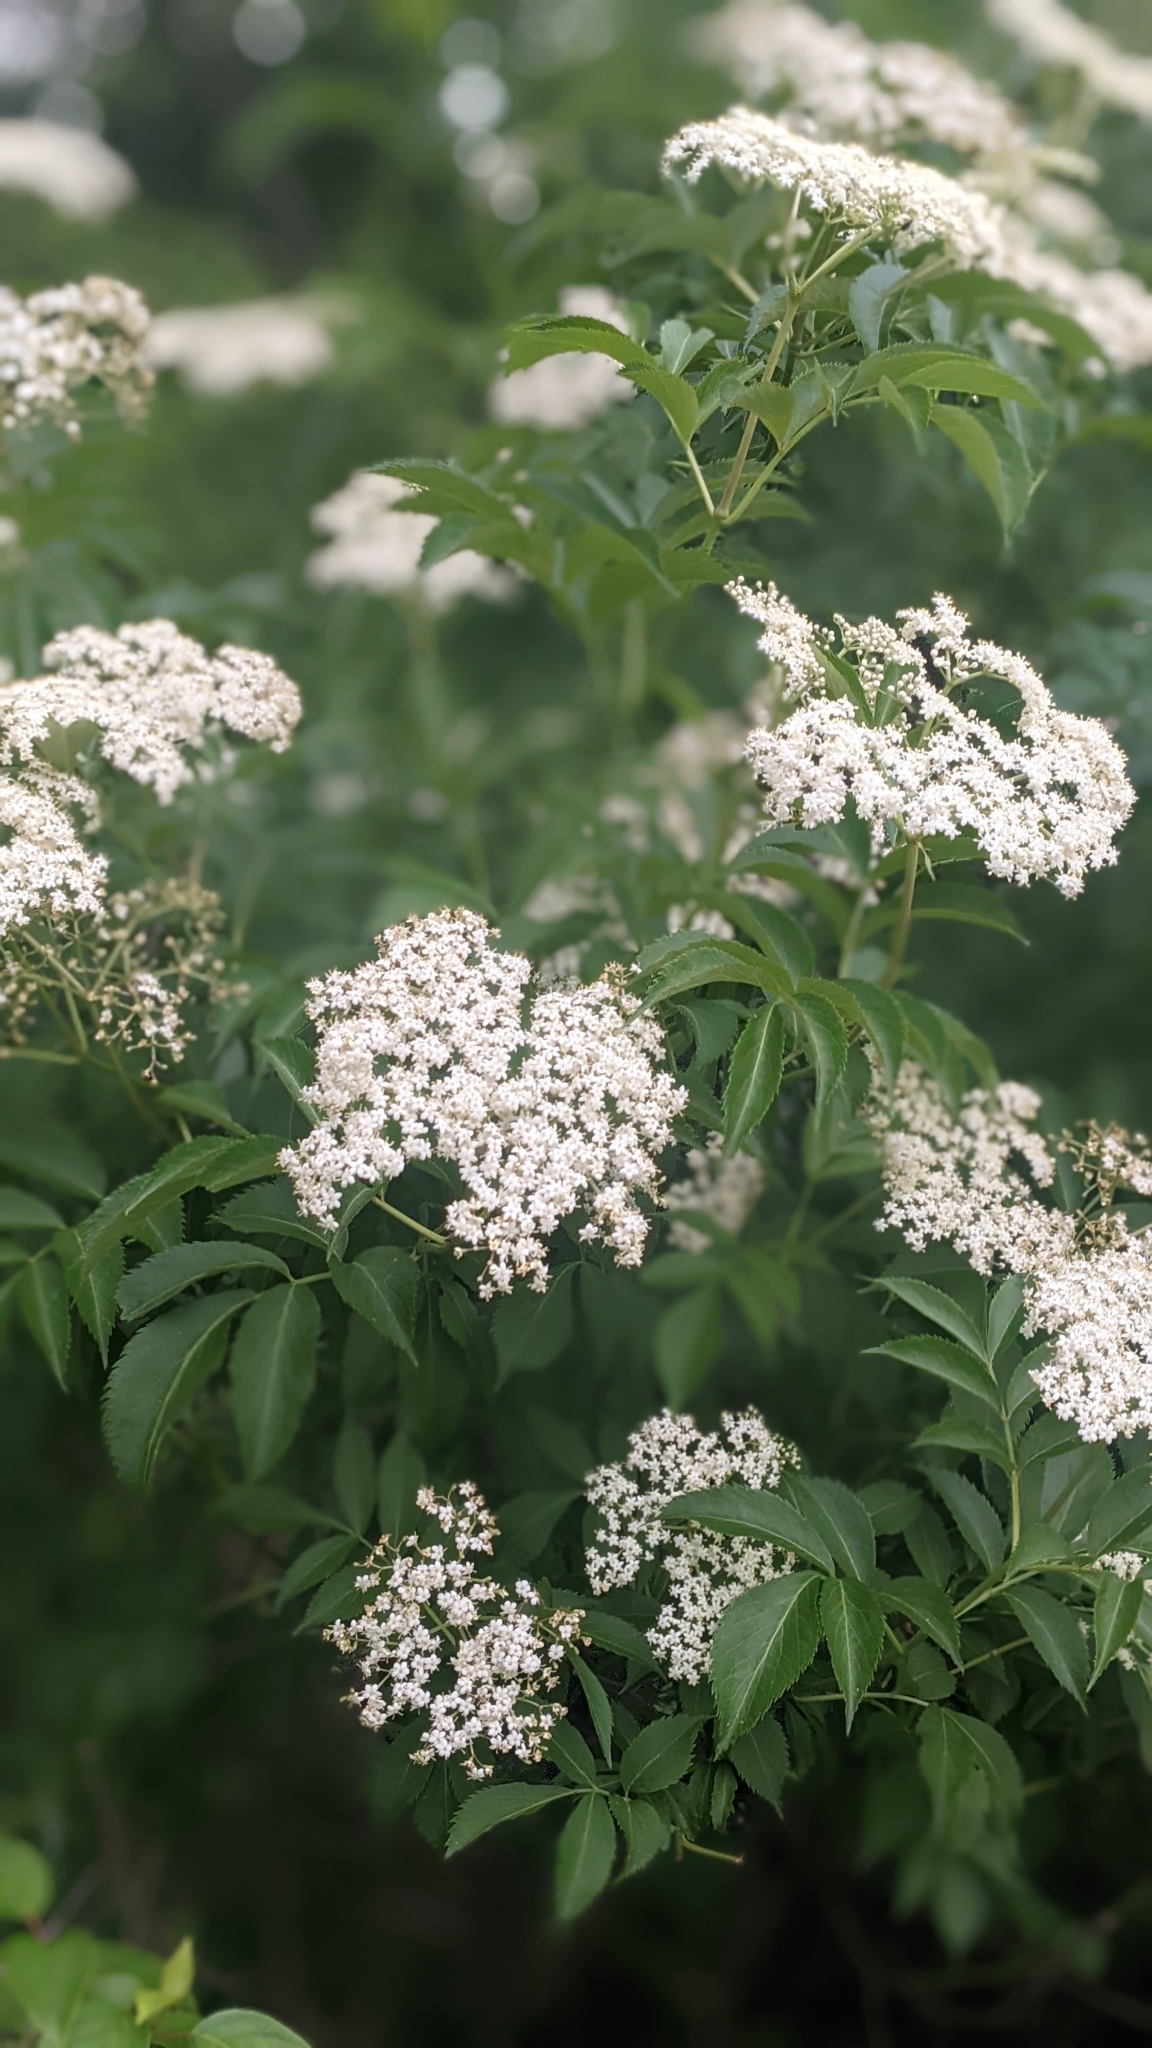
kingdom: Plantae
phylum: Tracheophyta
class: Magnoliopsida
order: Dipsacales
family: Viburnaceae
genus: Sambucus
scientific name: Sambucus canadensis
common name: American elder
